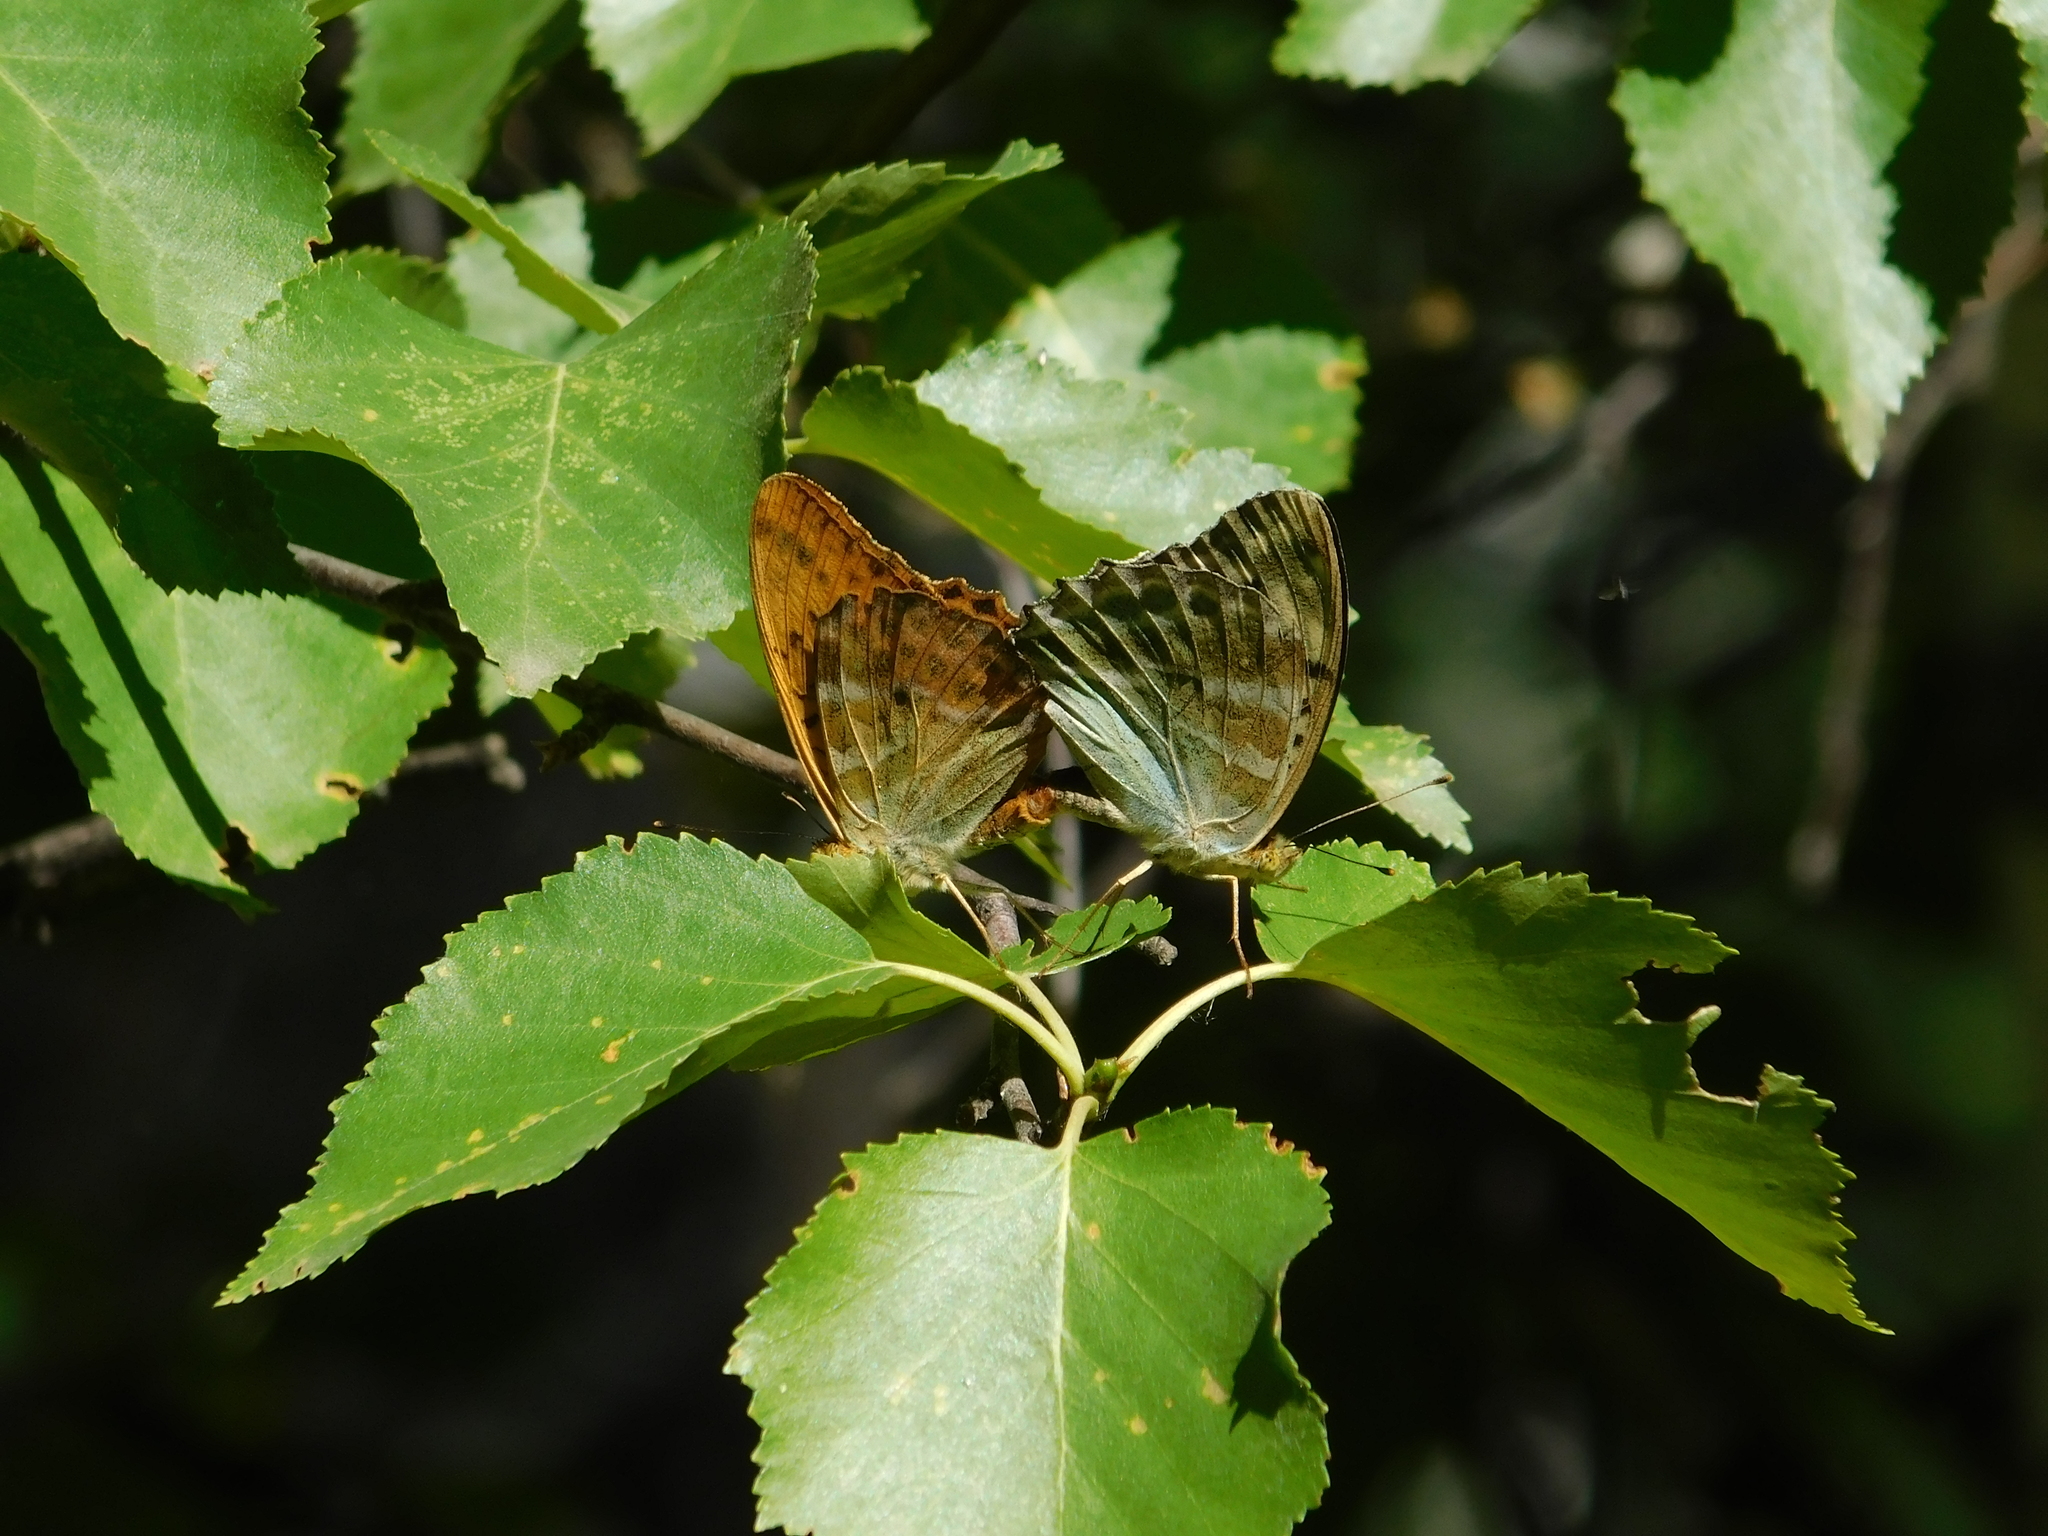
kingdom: Animalia
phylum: Arthropoda
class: Insecta
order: Lepidoptera
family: Nymphalidae
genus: Argynnis
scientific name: Argynnis paphia
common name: Silver-washed fritillary
